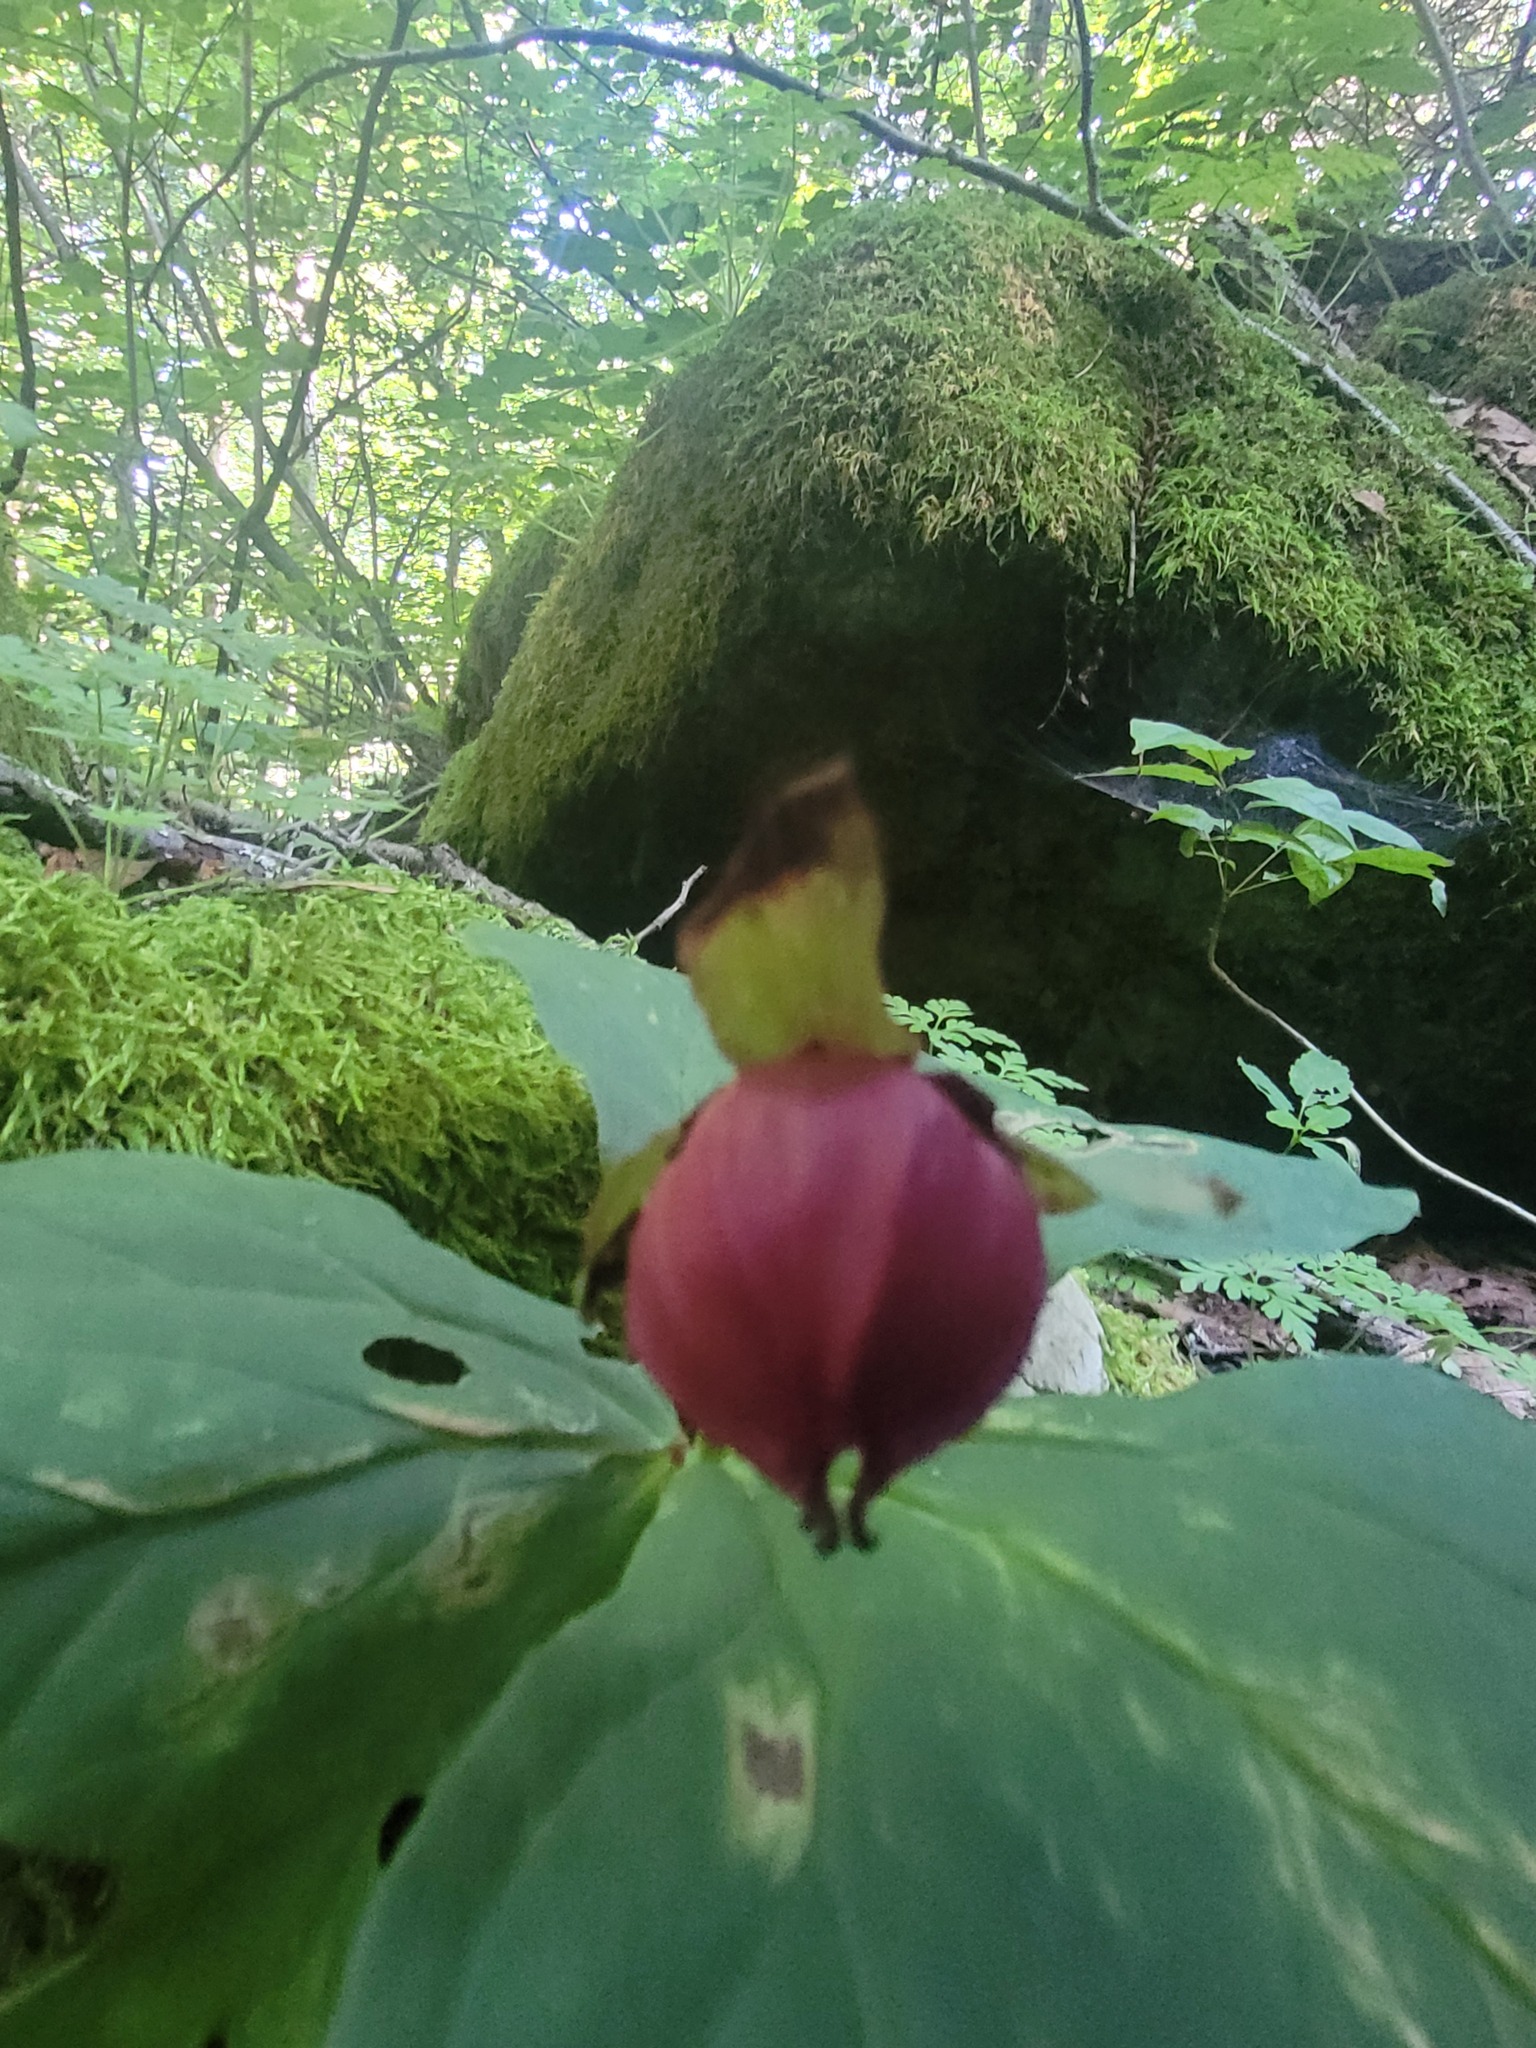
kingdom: Plantae
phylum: Tracheophyta
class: Liliopsida
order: Liliales
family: Melanthiaceae
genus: Trillium
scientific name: Trillium erectum
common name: Purple trillium
